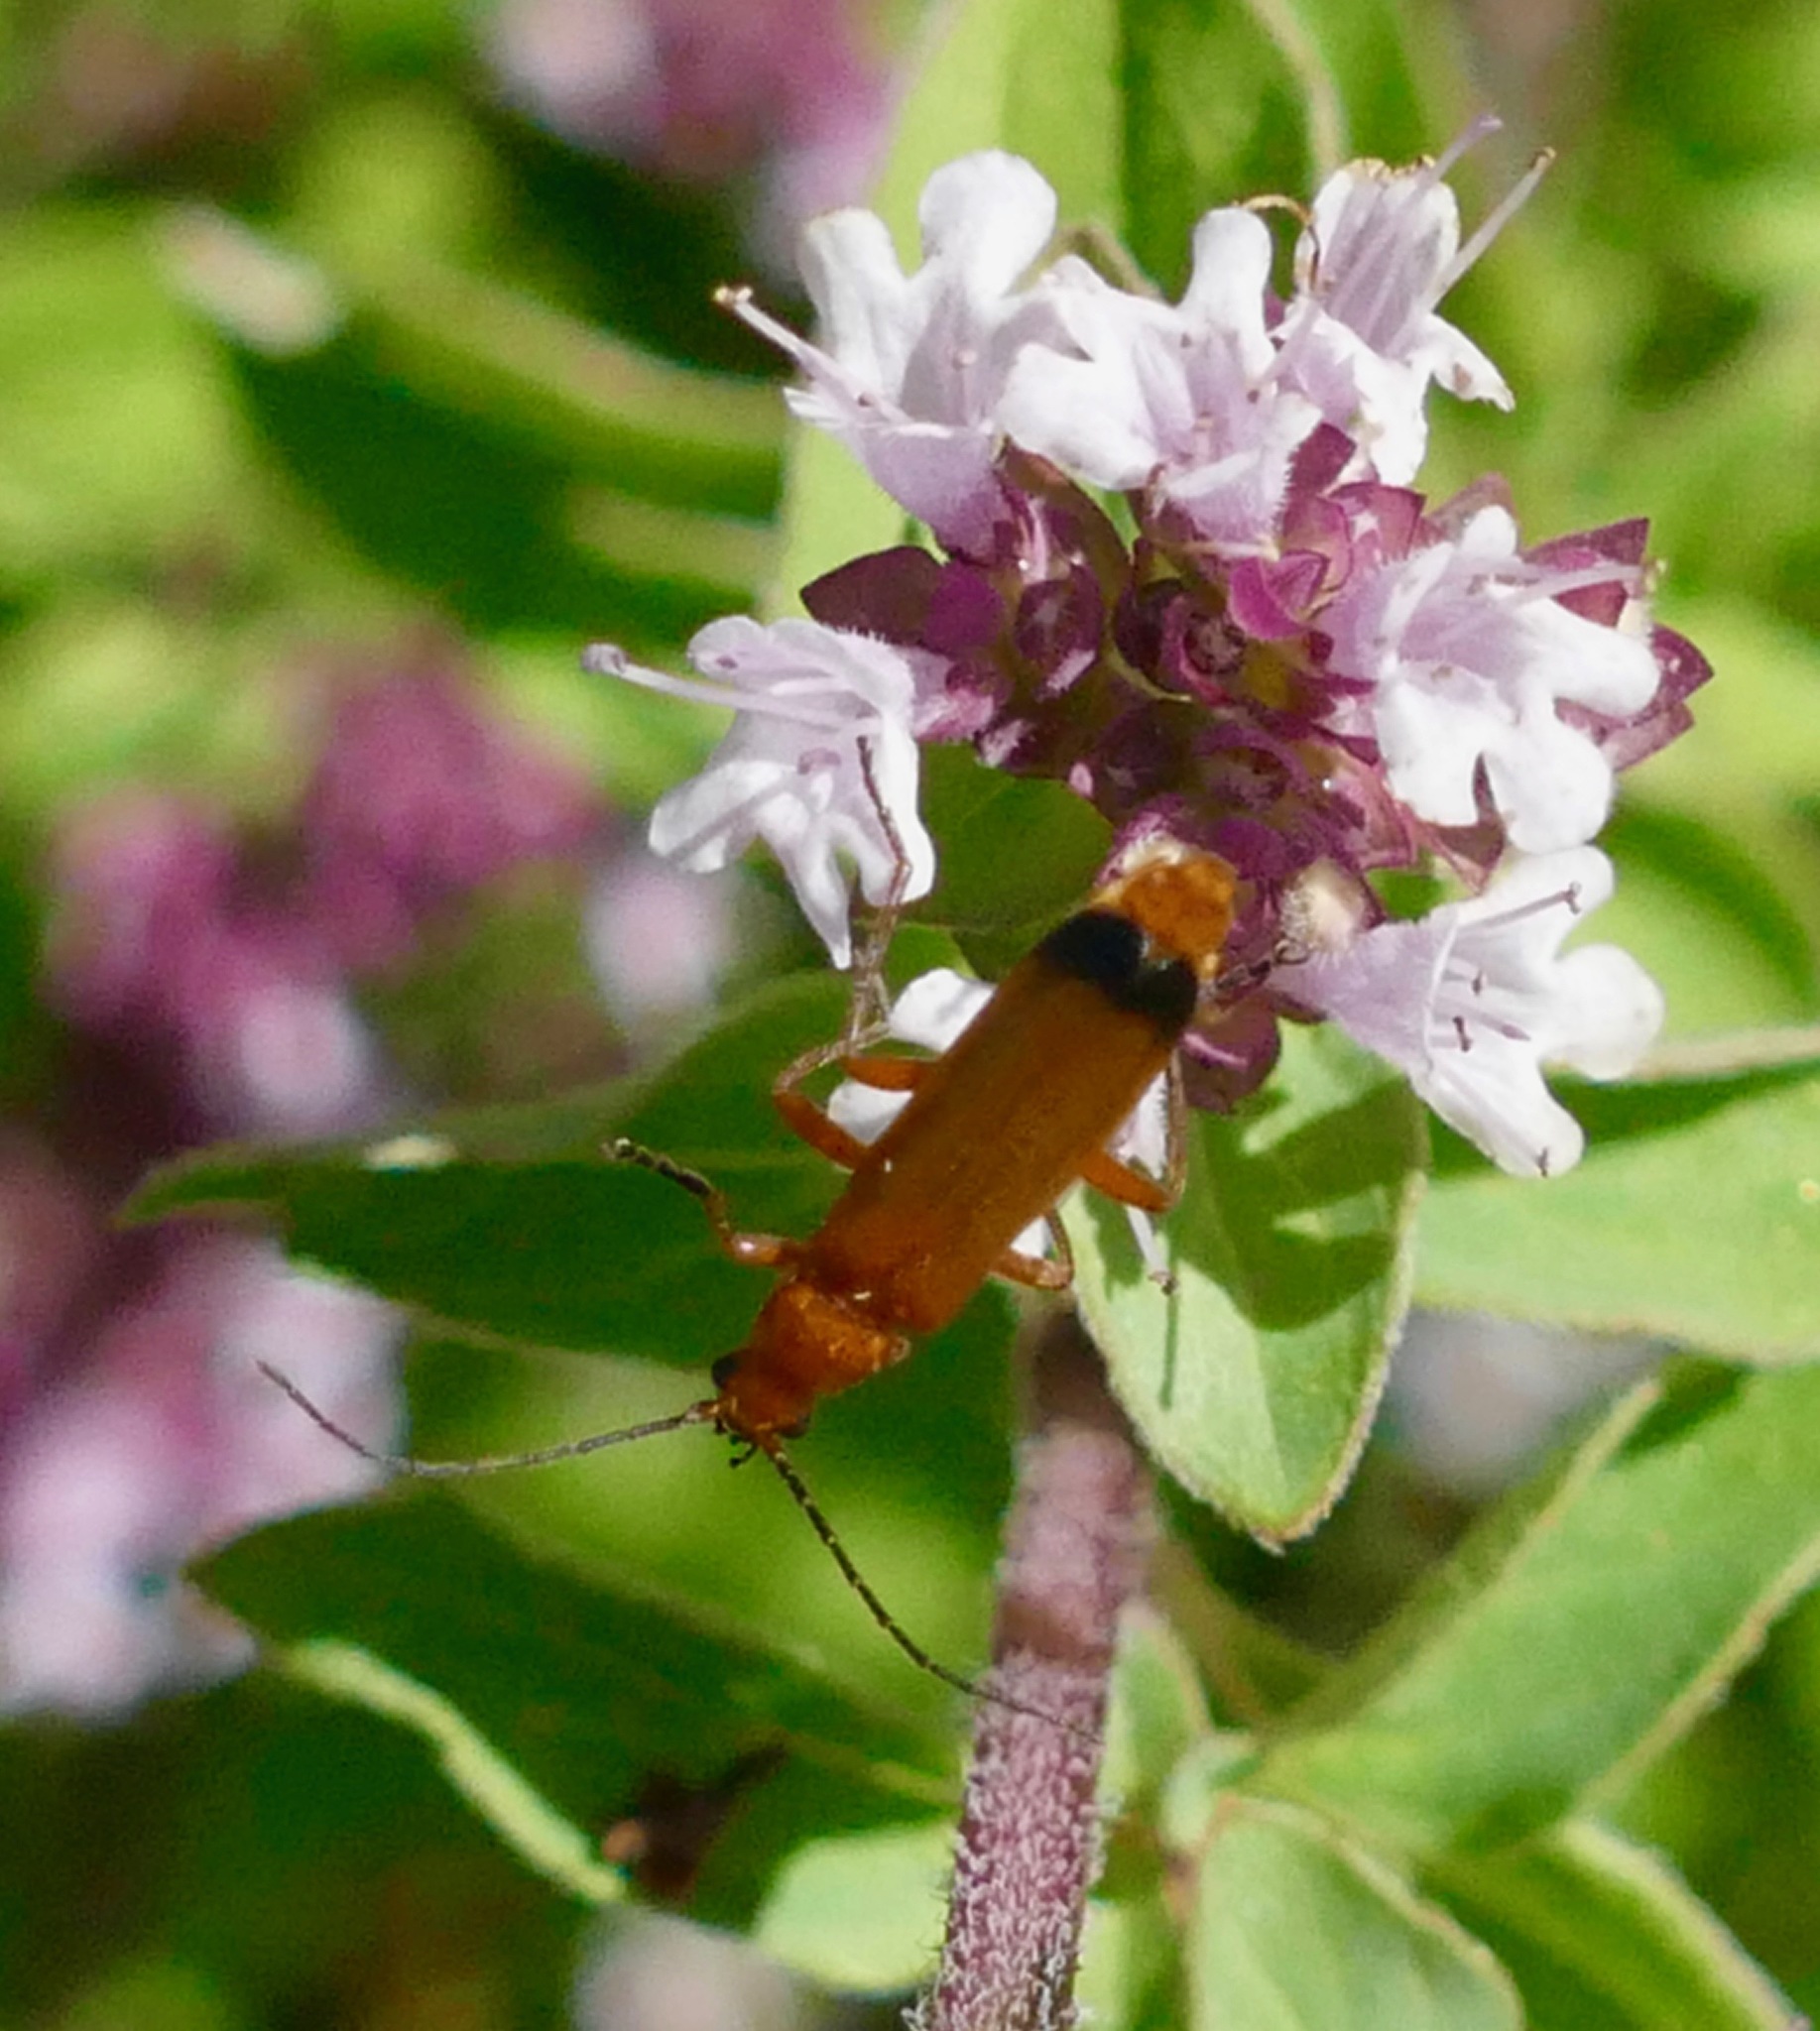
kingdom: Animalia
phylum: Arthropoda
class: Insecta
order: Coleoptera
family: Cantharidae
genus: Rhagonycha
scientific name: Rhagonycha fulva
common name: Common red soldier beetle
